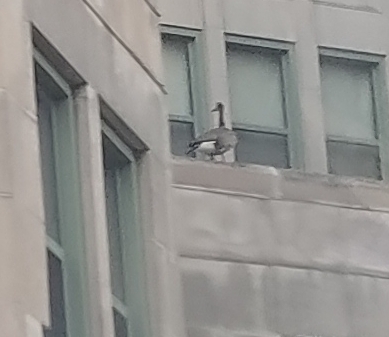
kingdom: Animalia
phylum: Chordata
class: Aves
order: Anseriformes
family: Anatidae
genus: Branta
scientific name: Branta canadensis
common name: Canada goose
